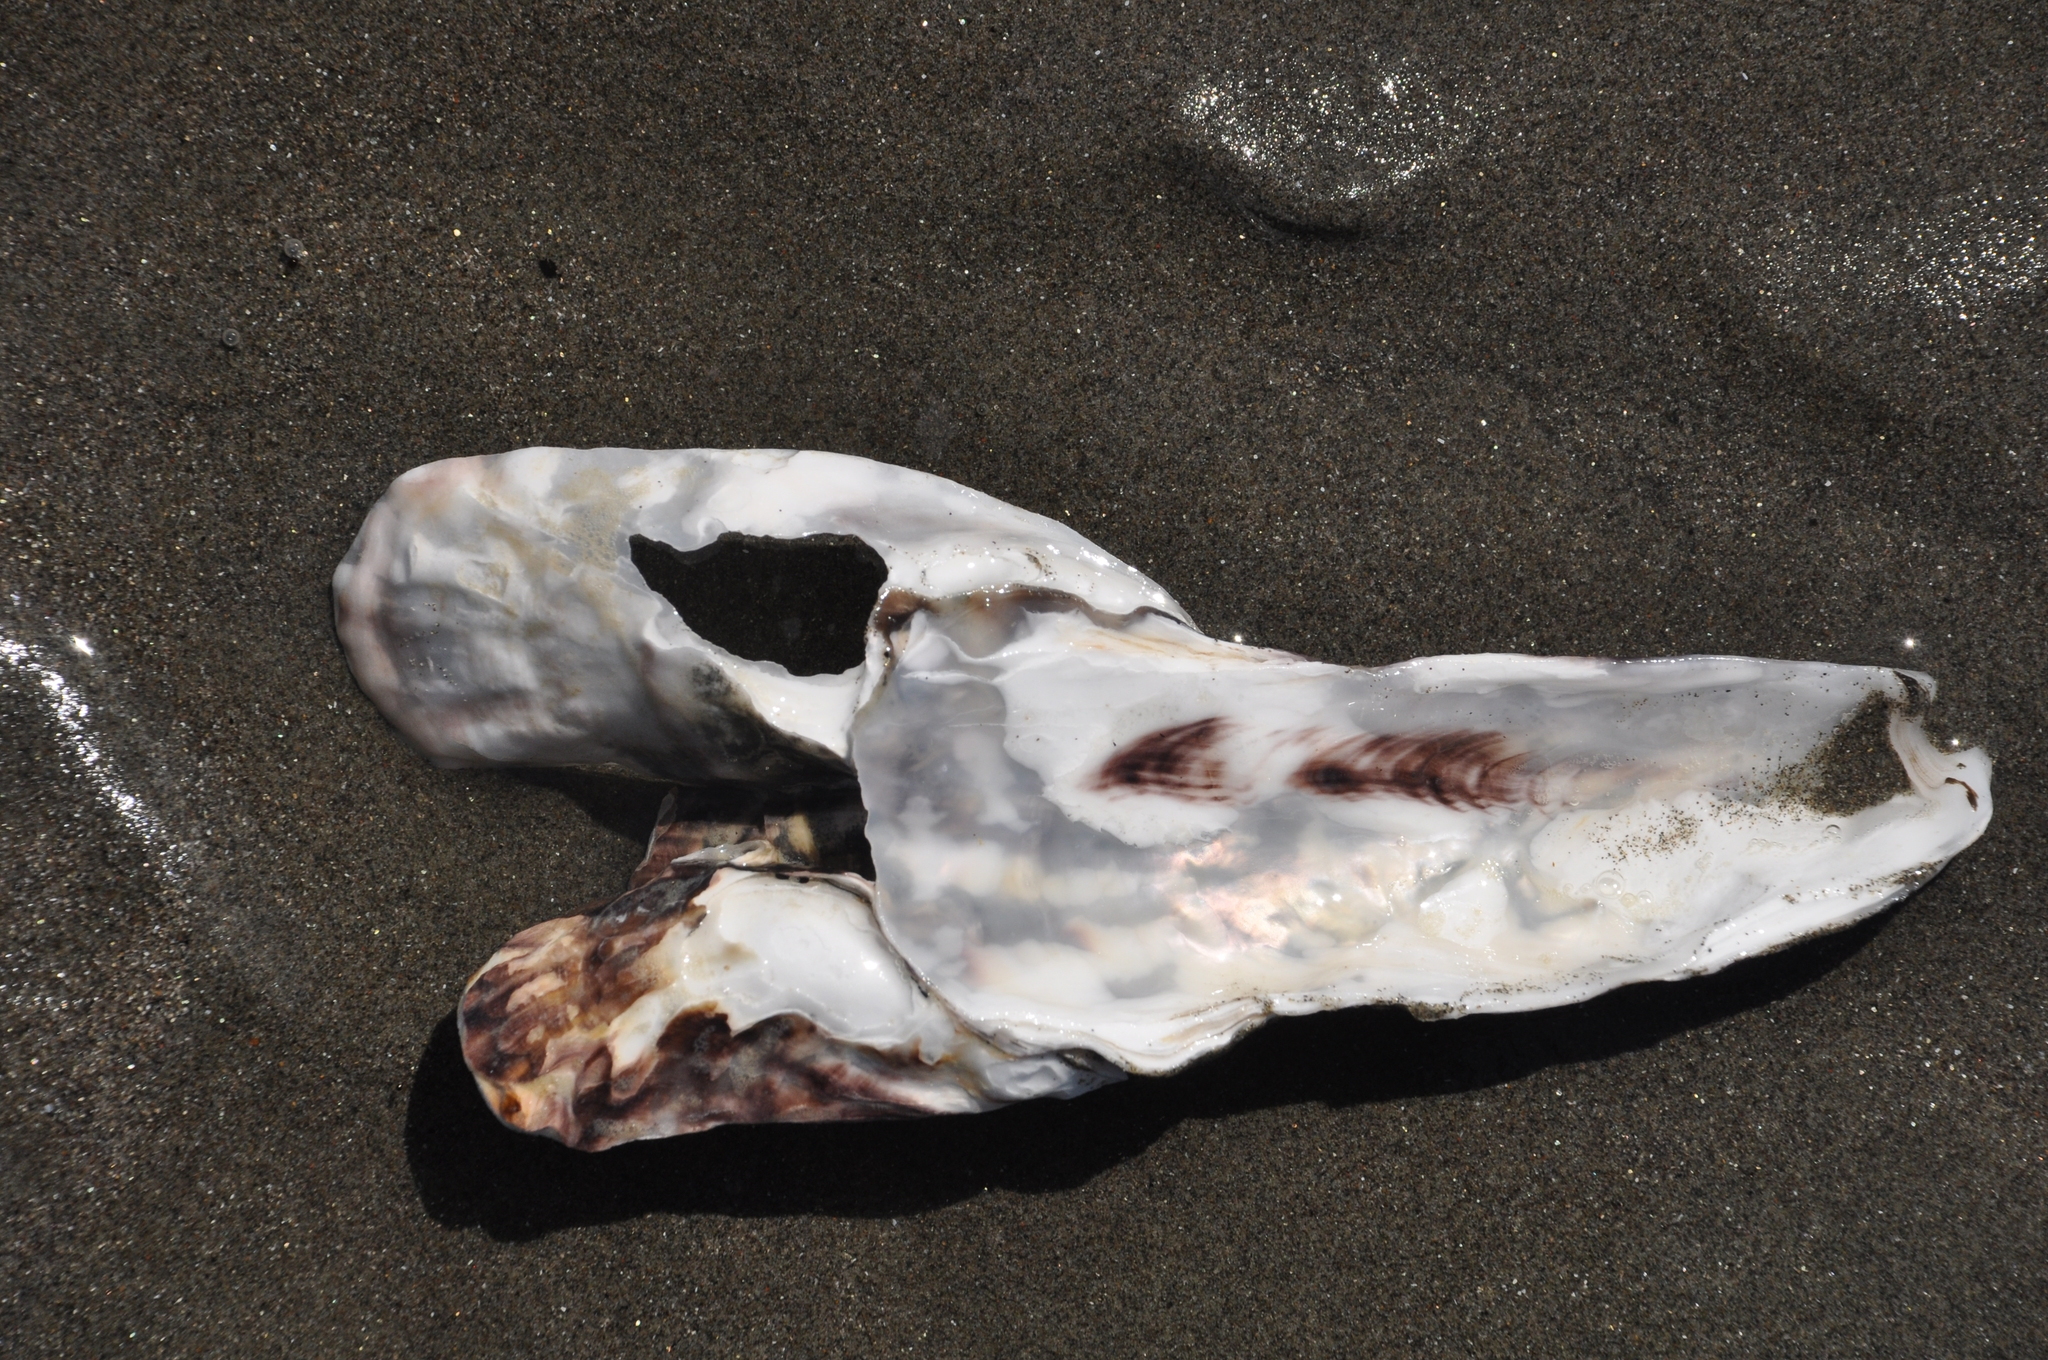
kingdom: Animalia
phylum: Mollusca
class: Bivalvia
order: Ostreida
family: Ostreidae
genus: Magallana
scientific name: Magallana gigas
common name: Pacific oyster
